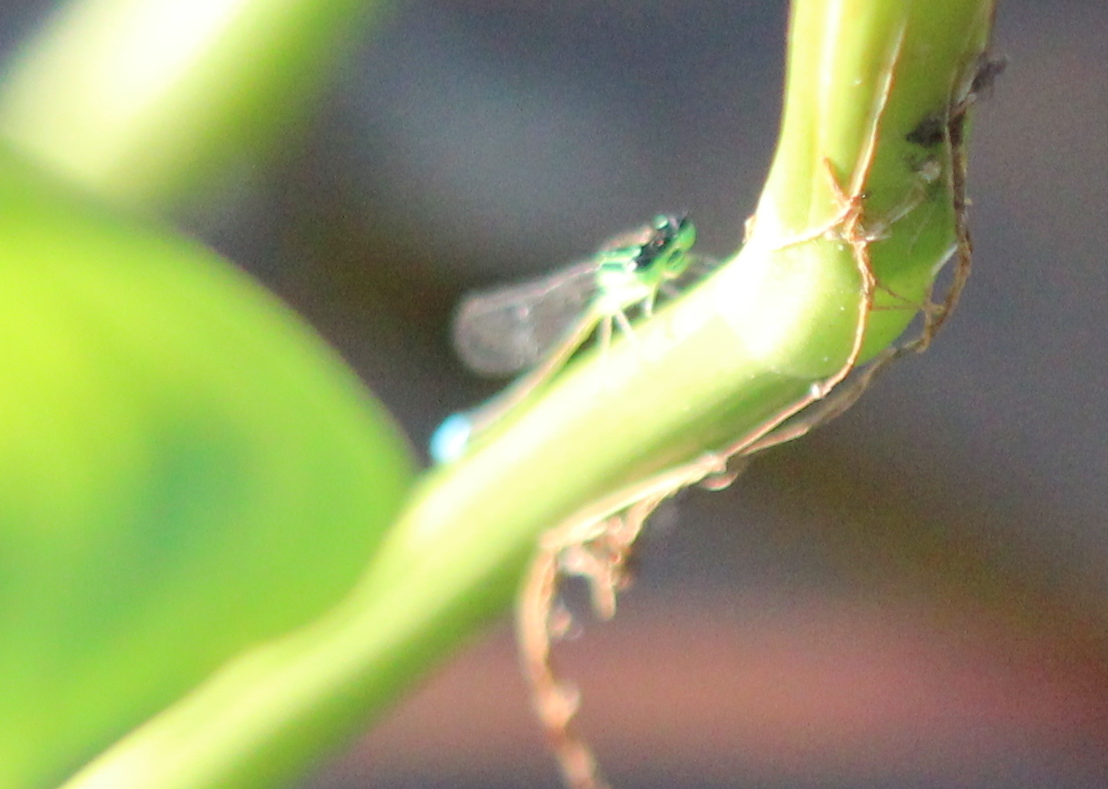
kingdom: Animalia
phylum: Arthropoda
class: Insecta
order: Odonata
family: Coenagrionidae
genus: Ischnura
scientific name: Ischnura verticalis
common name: Eastern forktail
